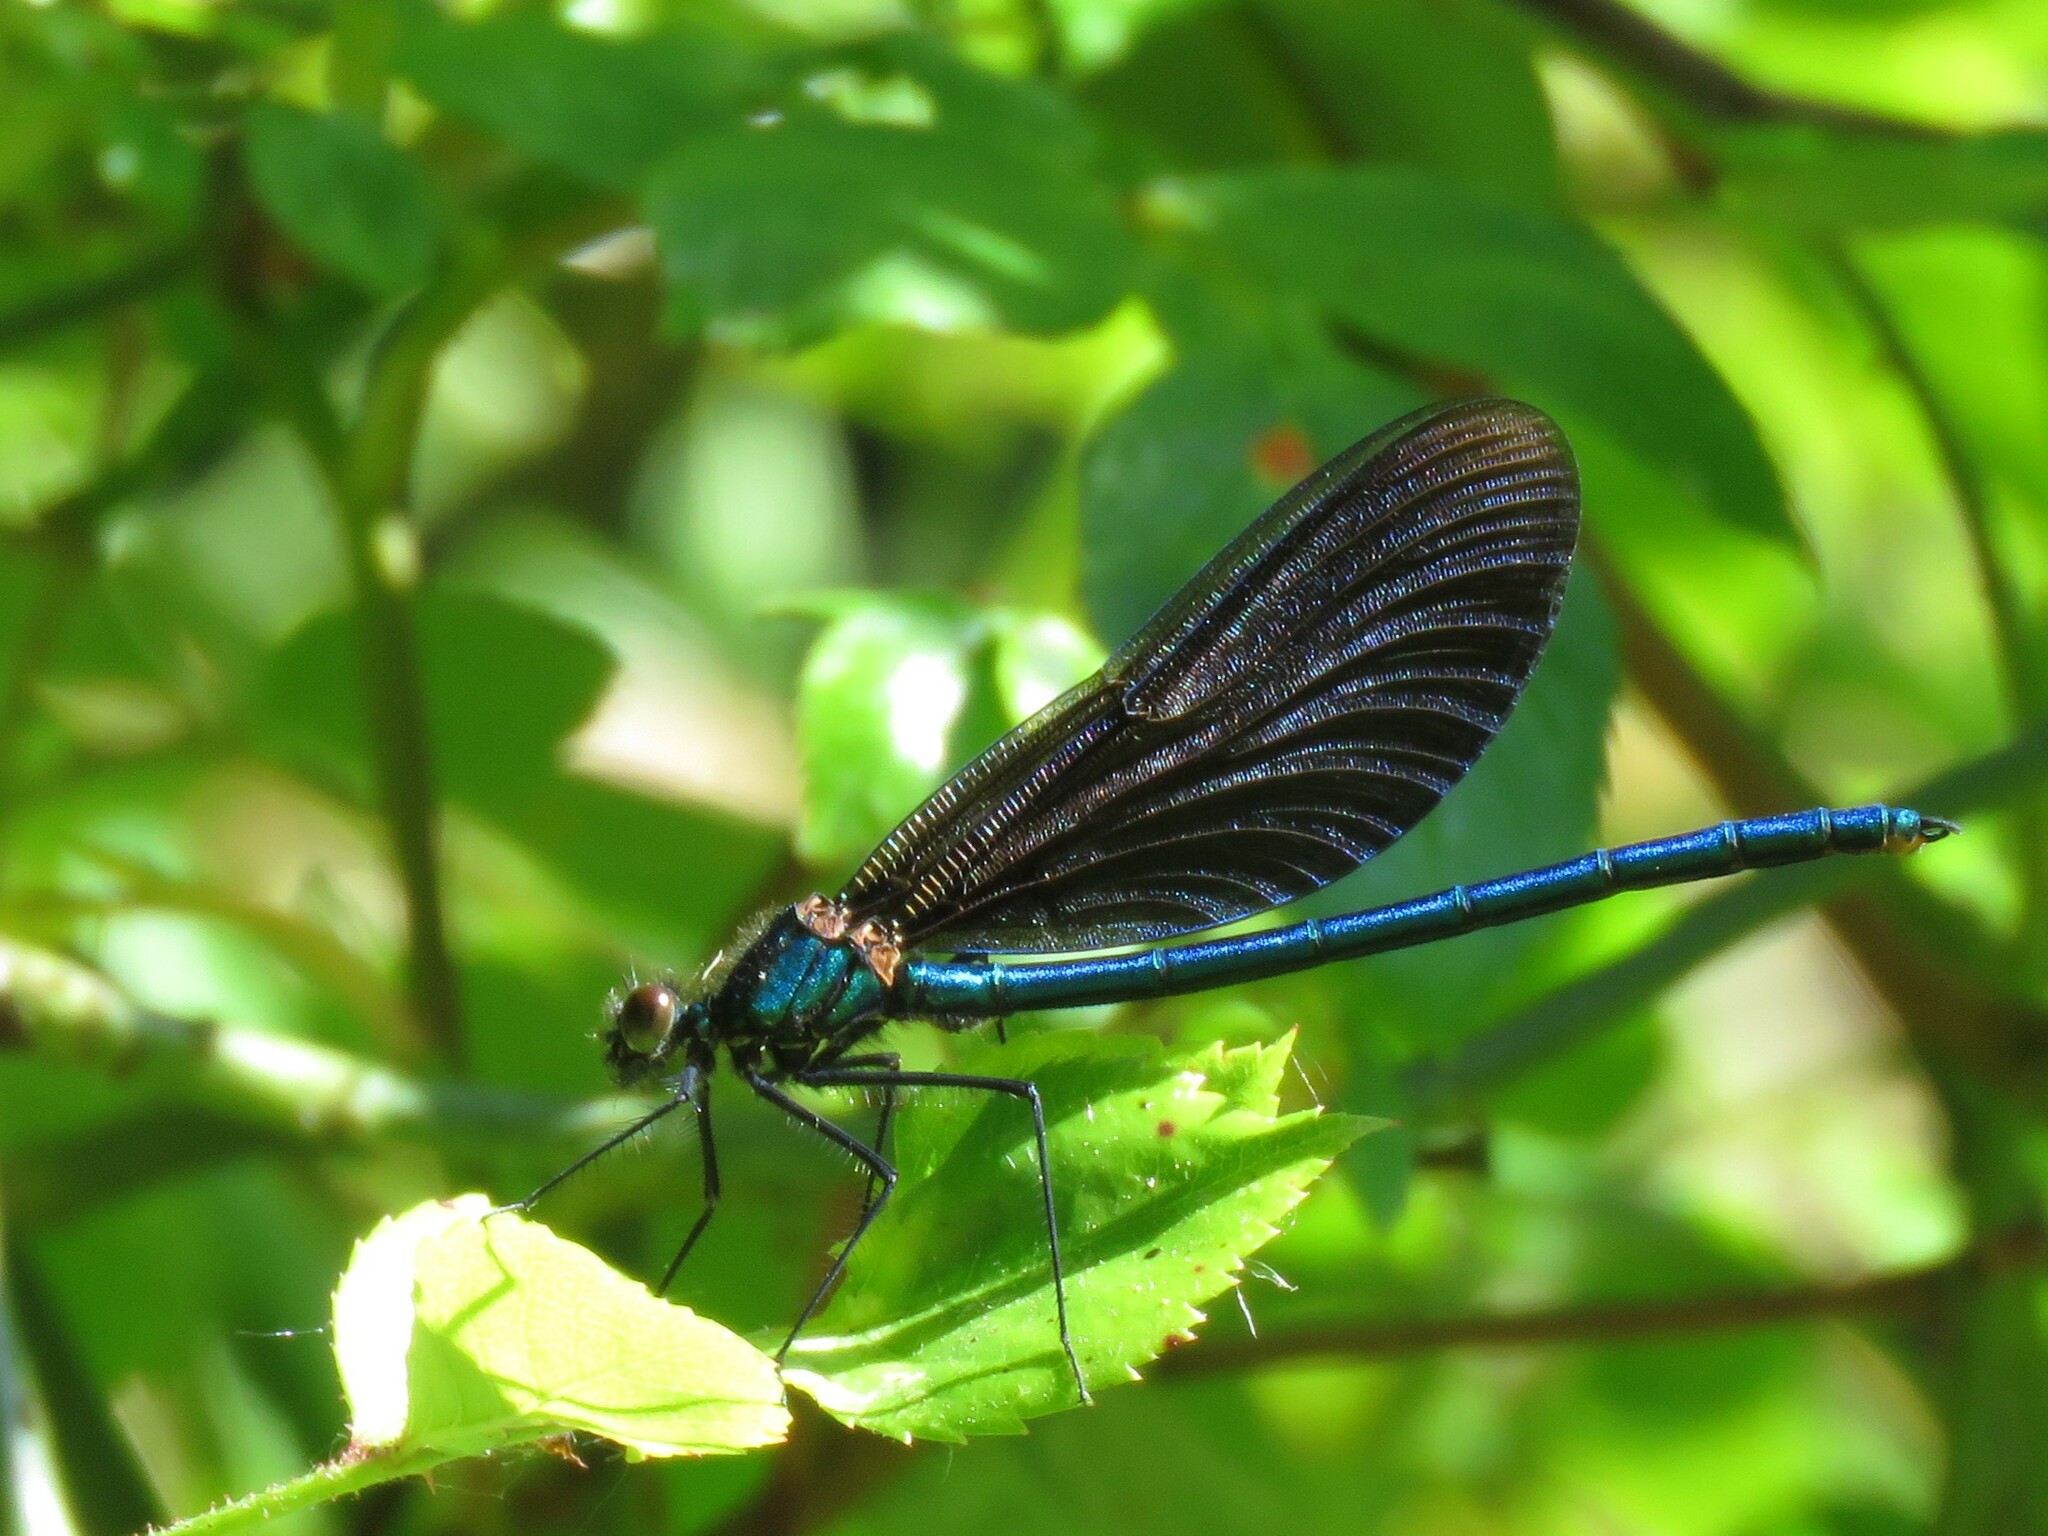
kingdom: Animalia
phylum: Arthropoda
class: Insecta
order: Odonata
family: Calopterygidae
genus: Calopteryx
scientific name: Calopteryx virgo
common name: Beautiful demoiselle
